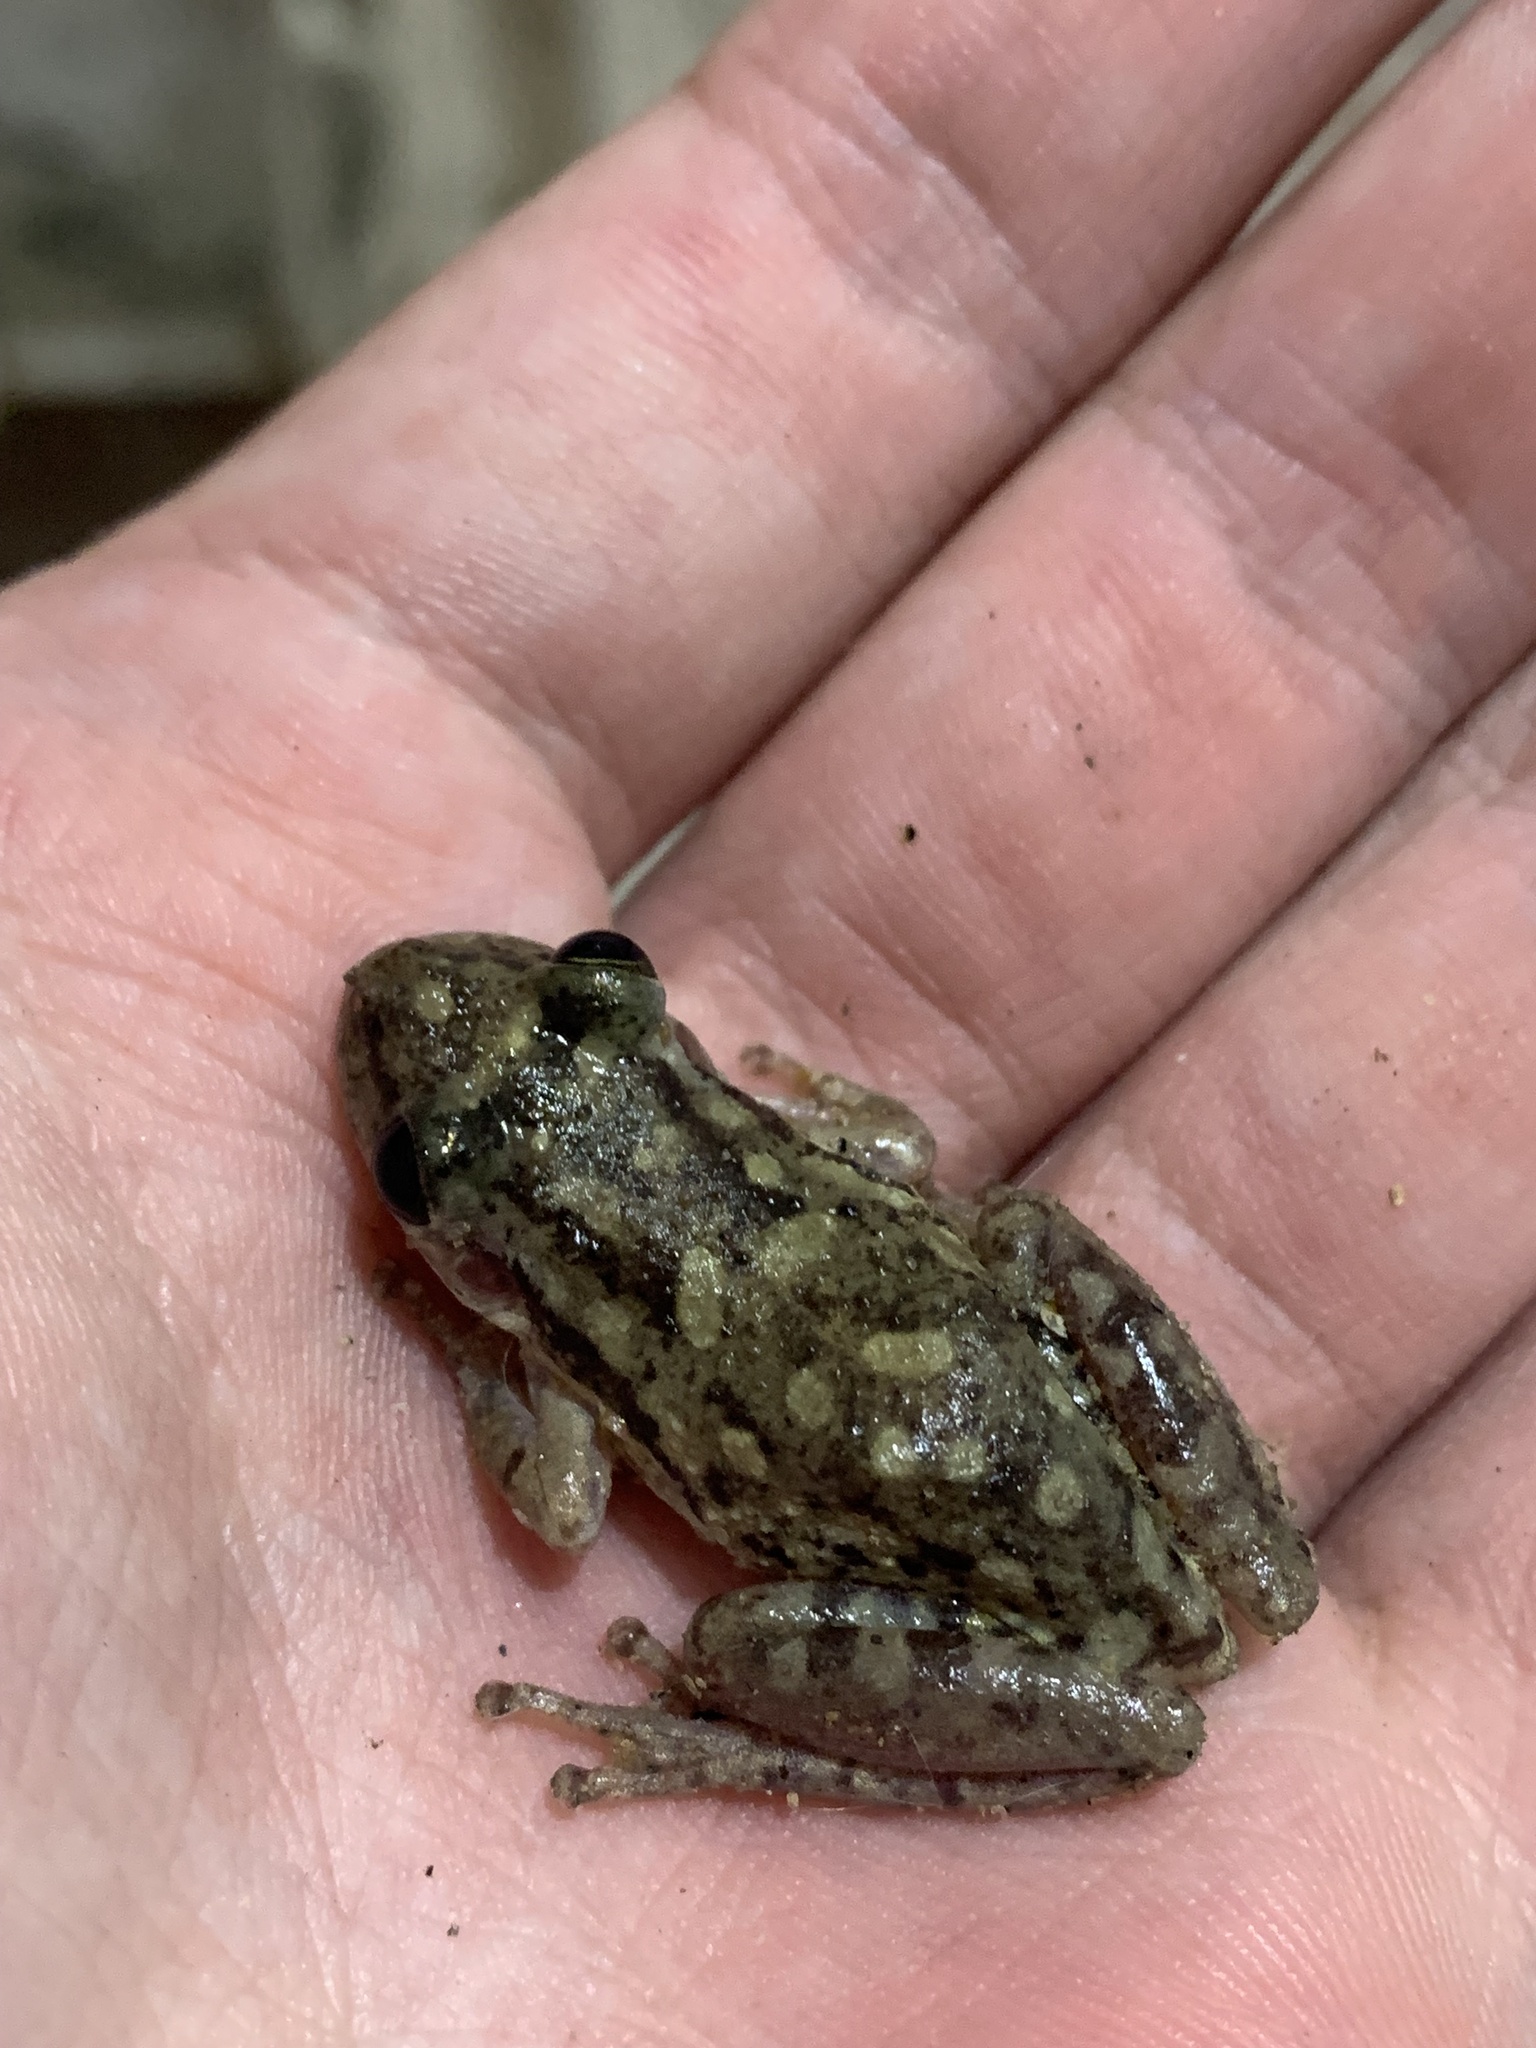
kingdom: Animalia
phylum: Chordata
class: Amphibia
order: Anura
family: Hylidae
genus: Scinax
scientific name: Scinax fuscovarius
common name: Fuscous-blotched treefrog
